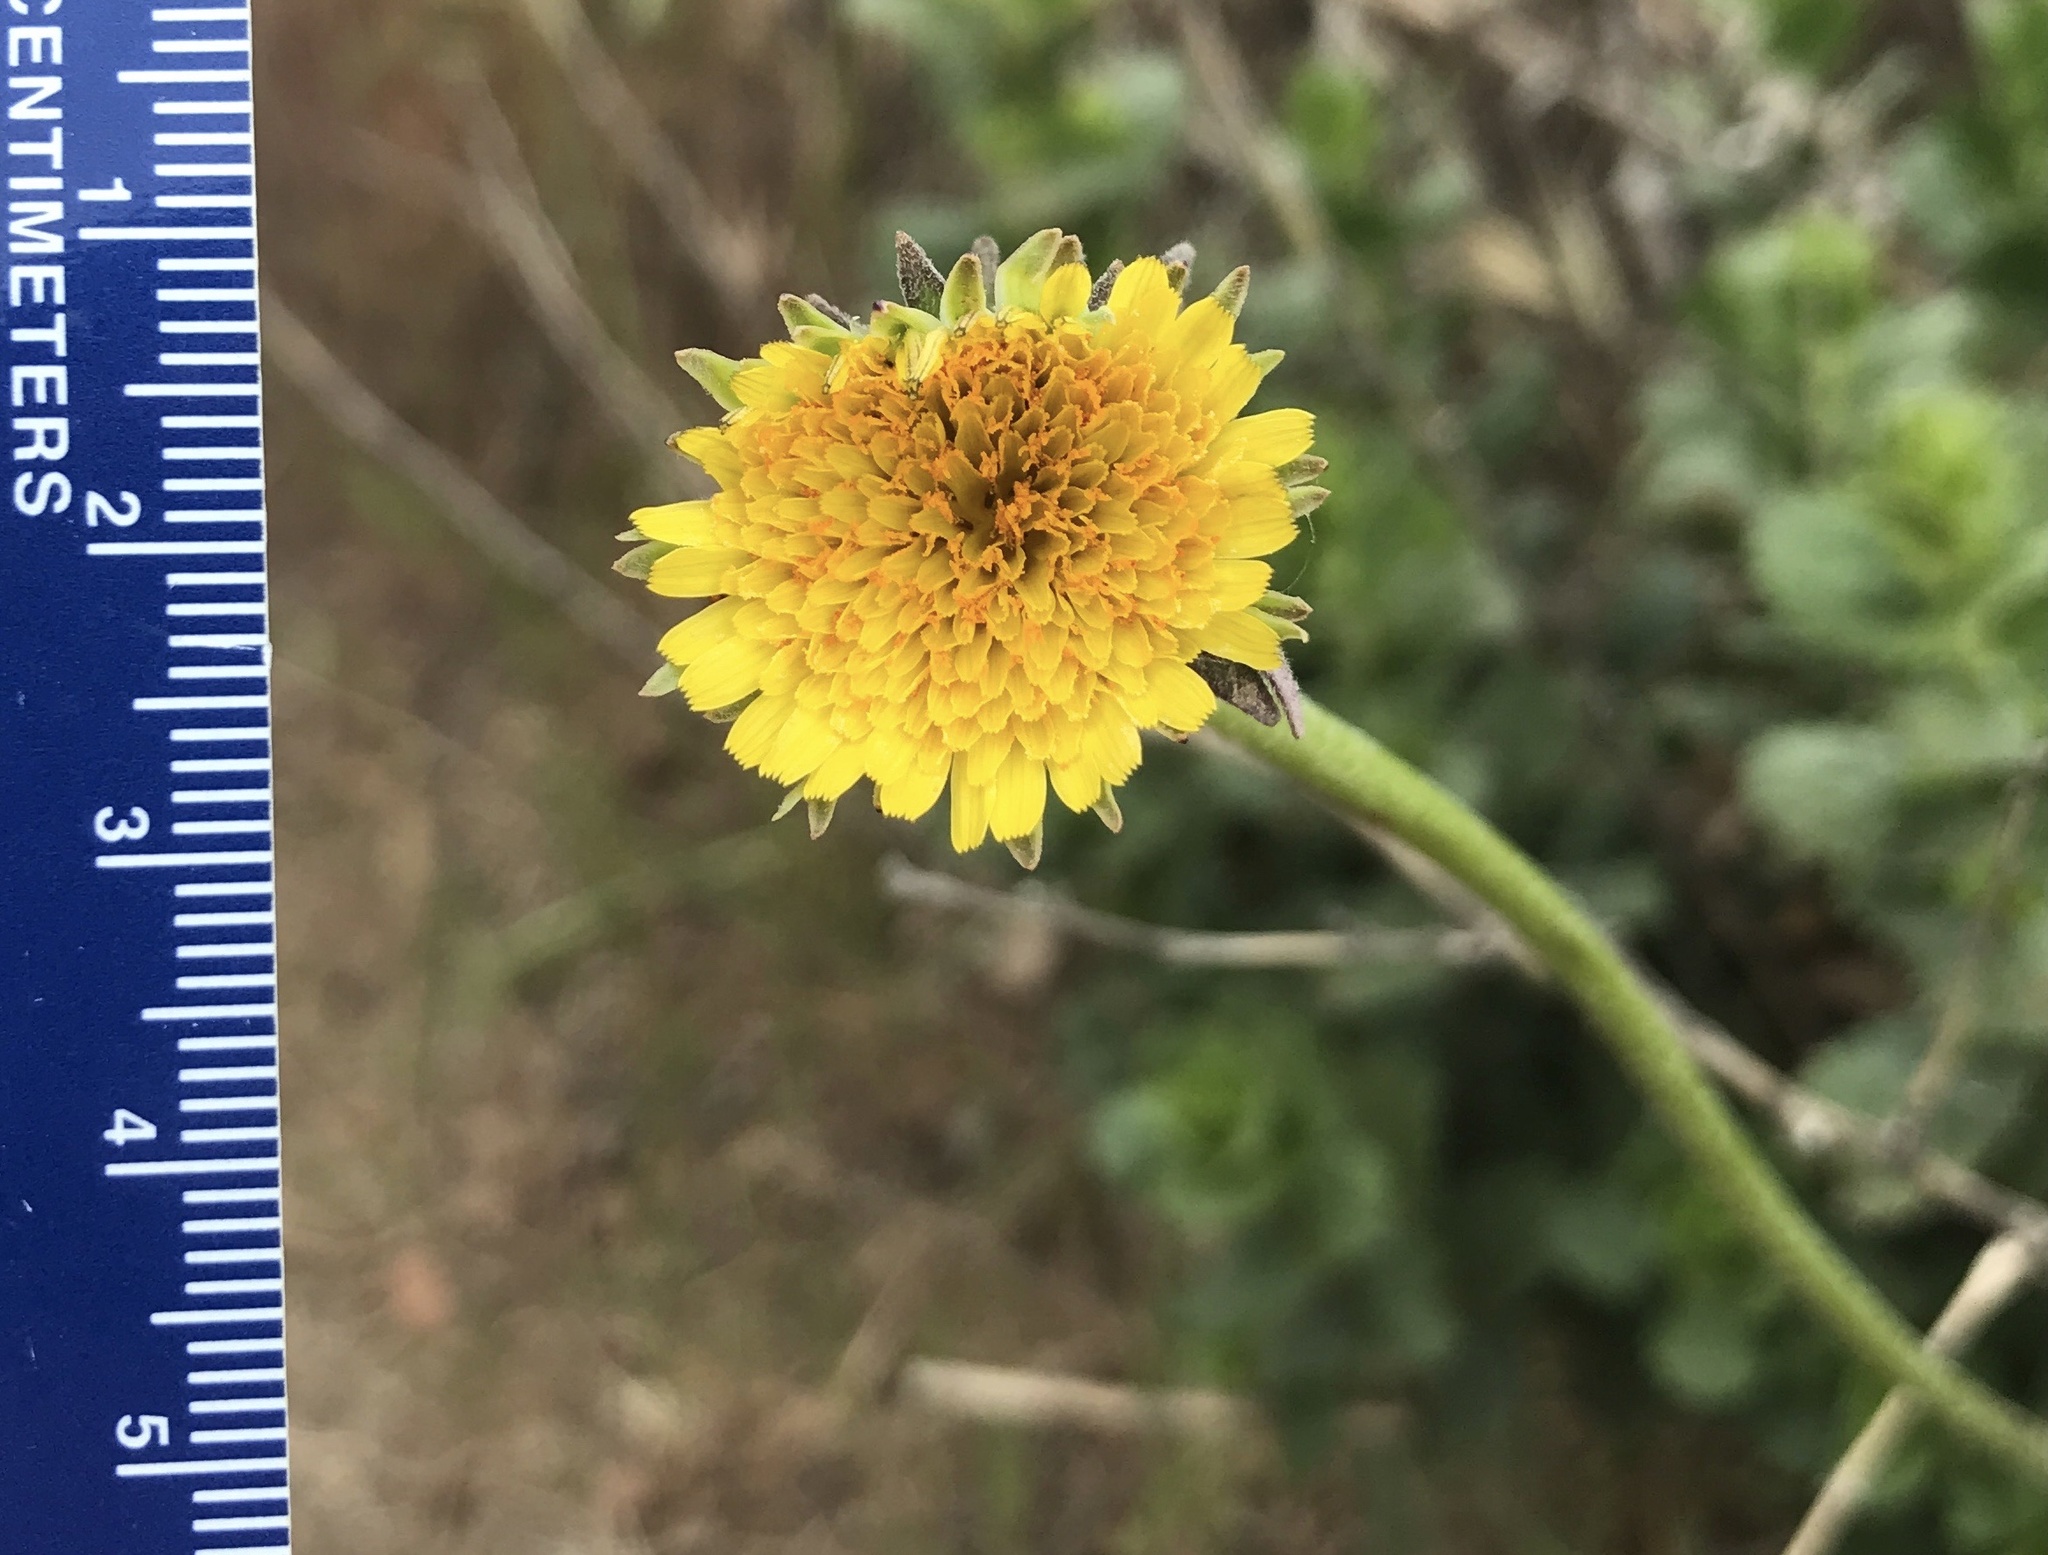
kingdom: Plantae
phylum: Tracheophyta
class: Magnoliopsida
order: Asterales
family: Asteraceae
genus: Agoseris
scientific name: Agoseris grandiflora
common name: Grassland agoseris
